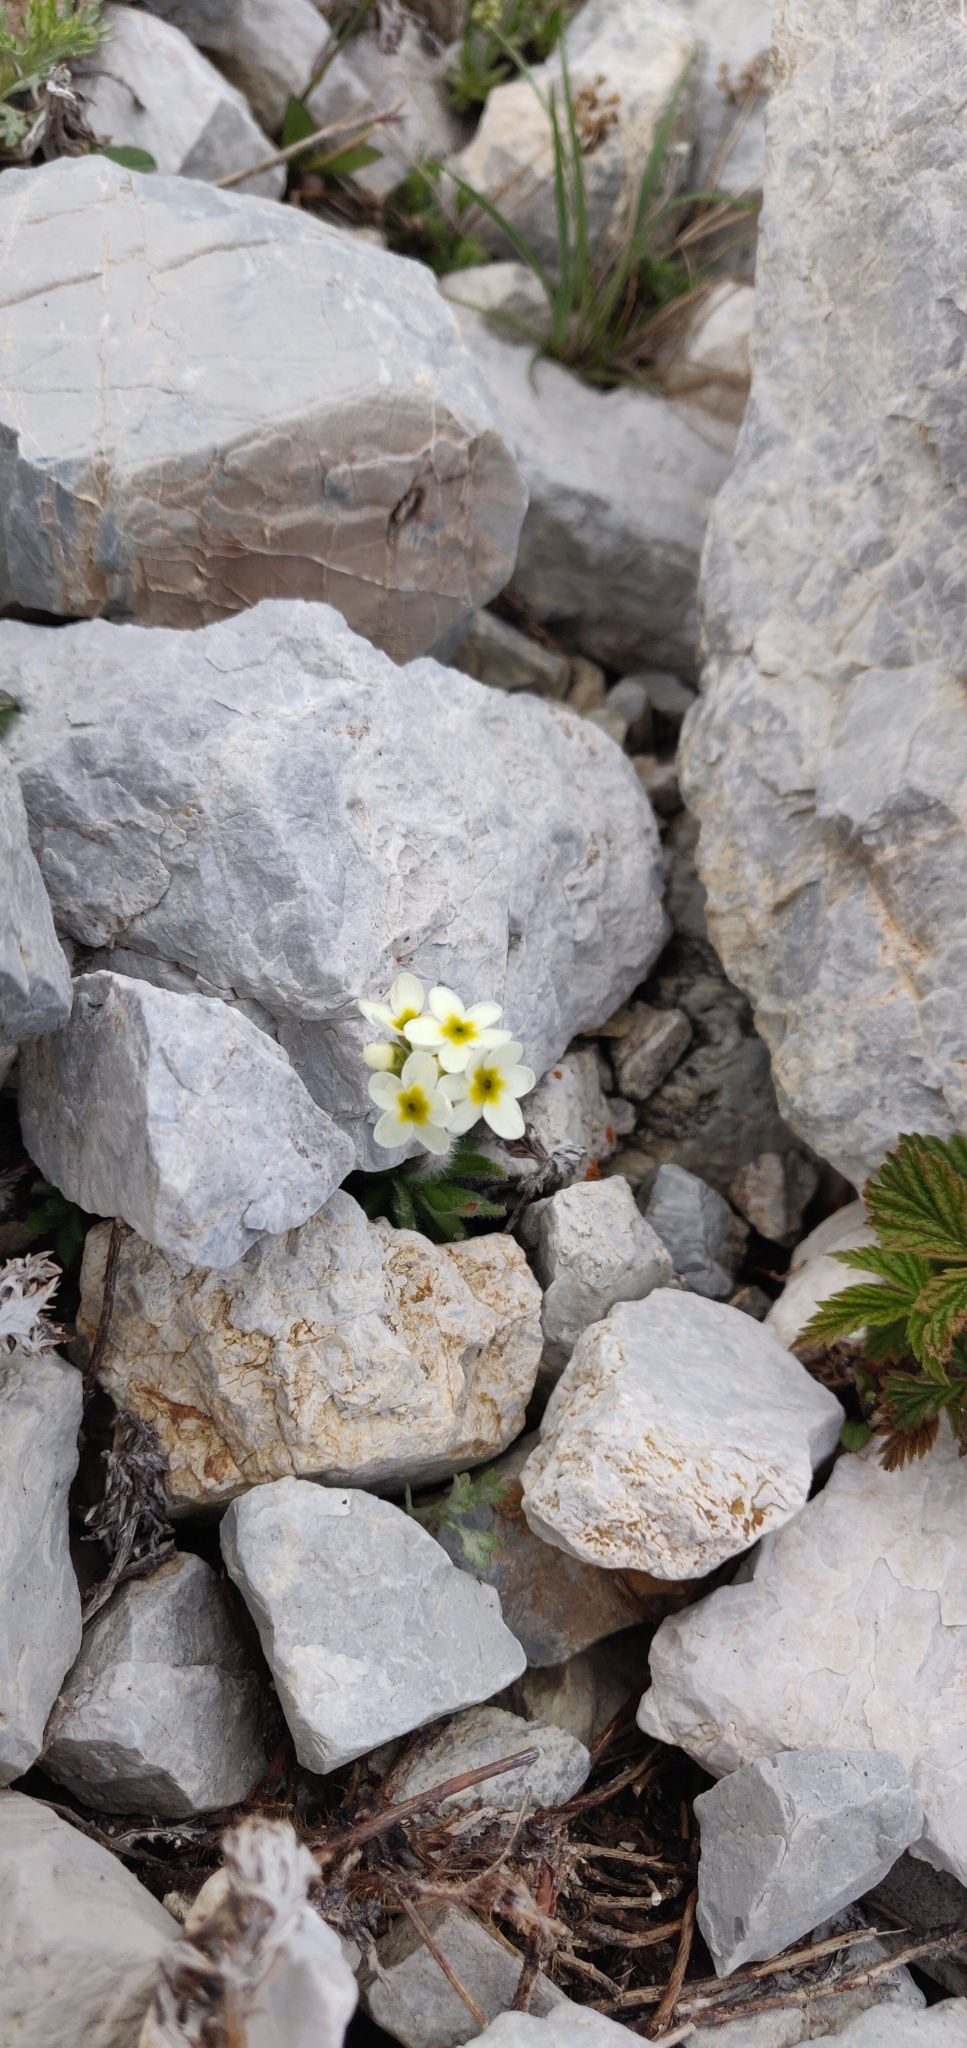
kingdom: Plantae
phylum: Tracheophyta
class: Magnoliopsida
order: Ericales
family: Primulaceae
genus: Androsace
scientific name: Androsace chamaejasme
